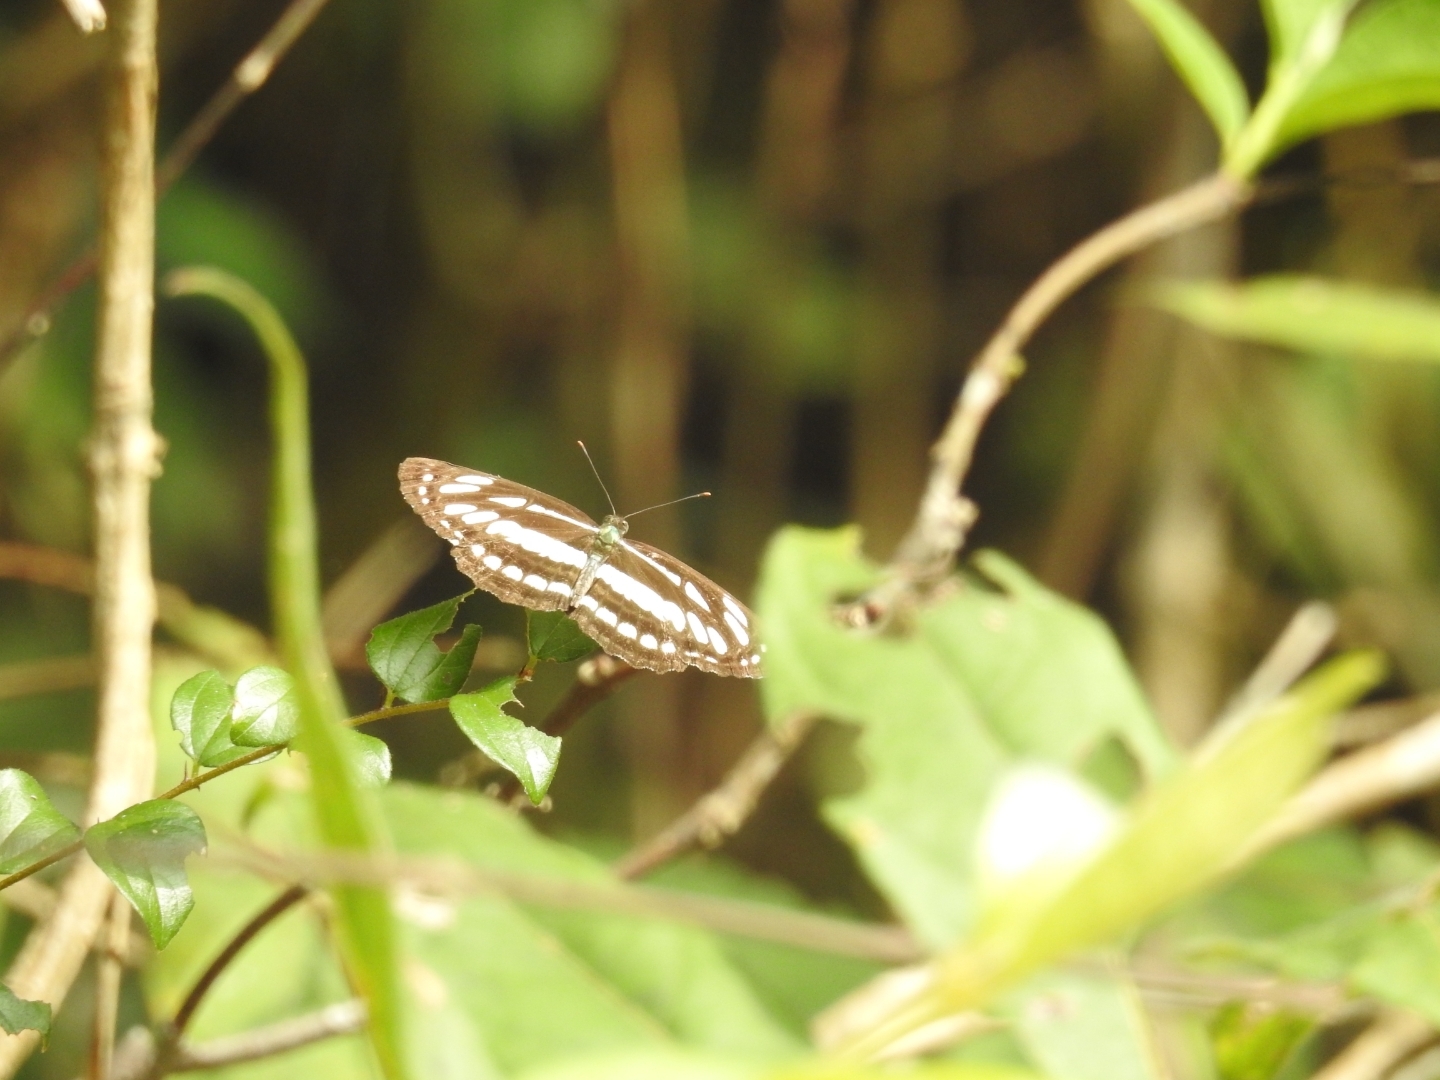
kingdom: Animalia
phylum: Arthropoda
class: Insecta
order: Lepidoptera
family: Nymphalidae
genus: Neptis
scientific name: Neptis hylas
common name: Common sailer
